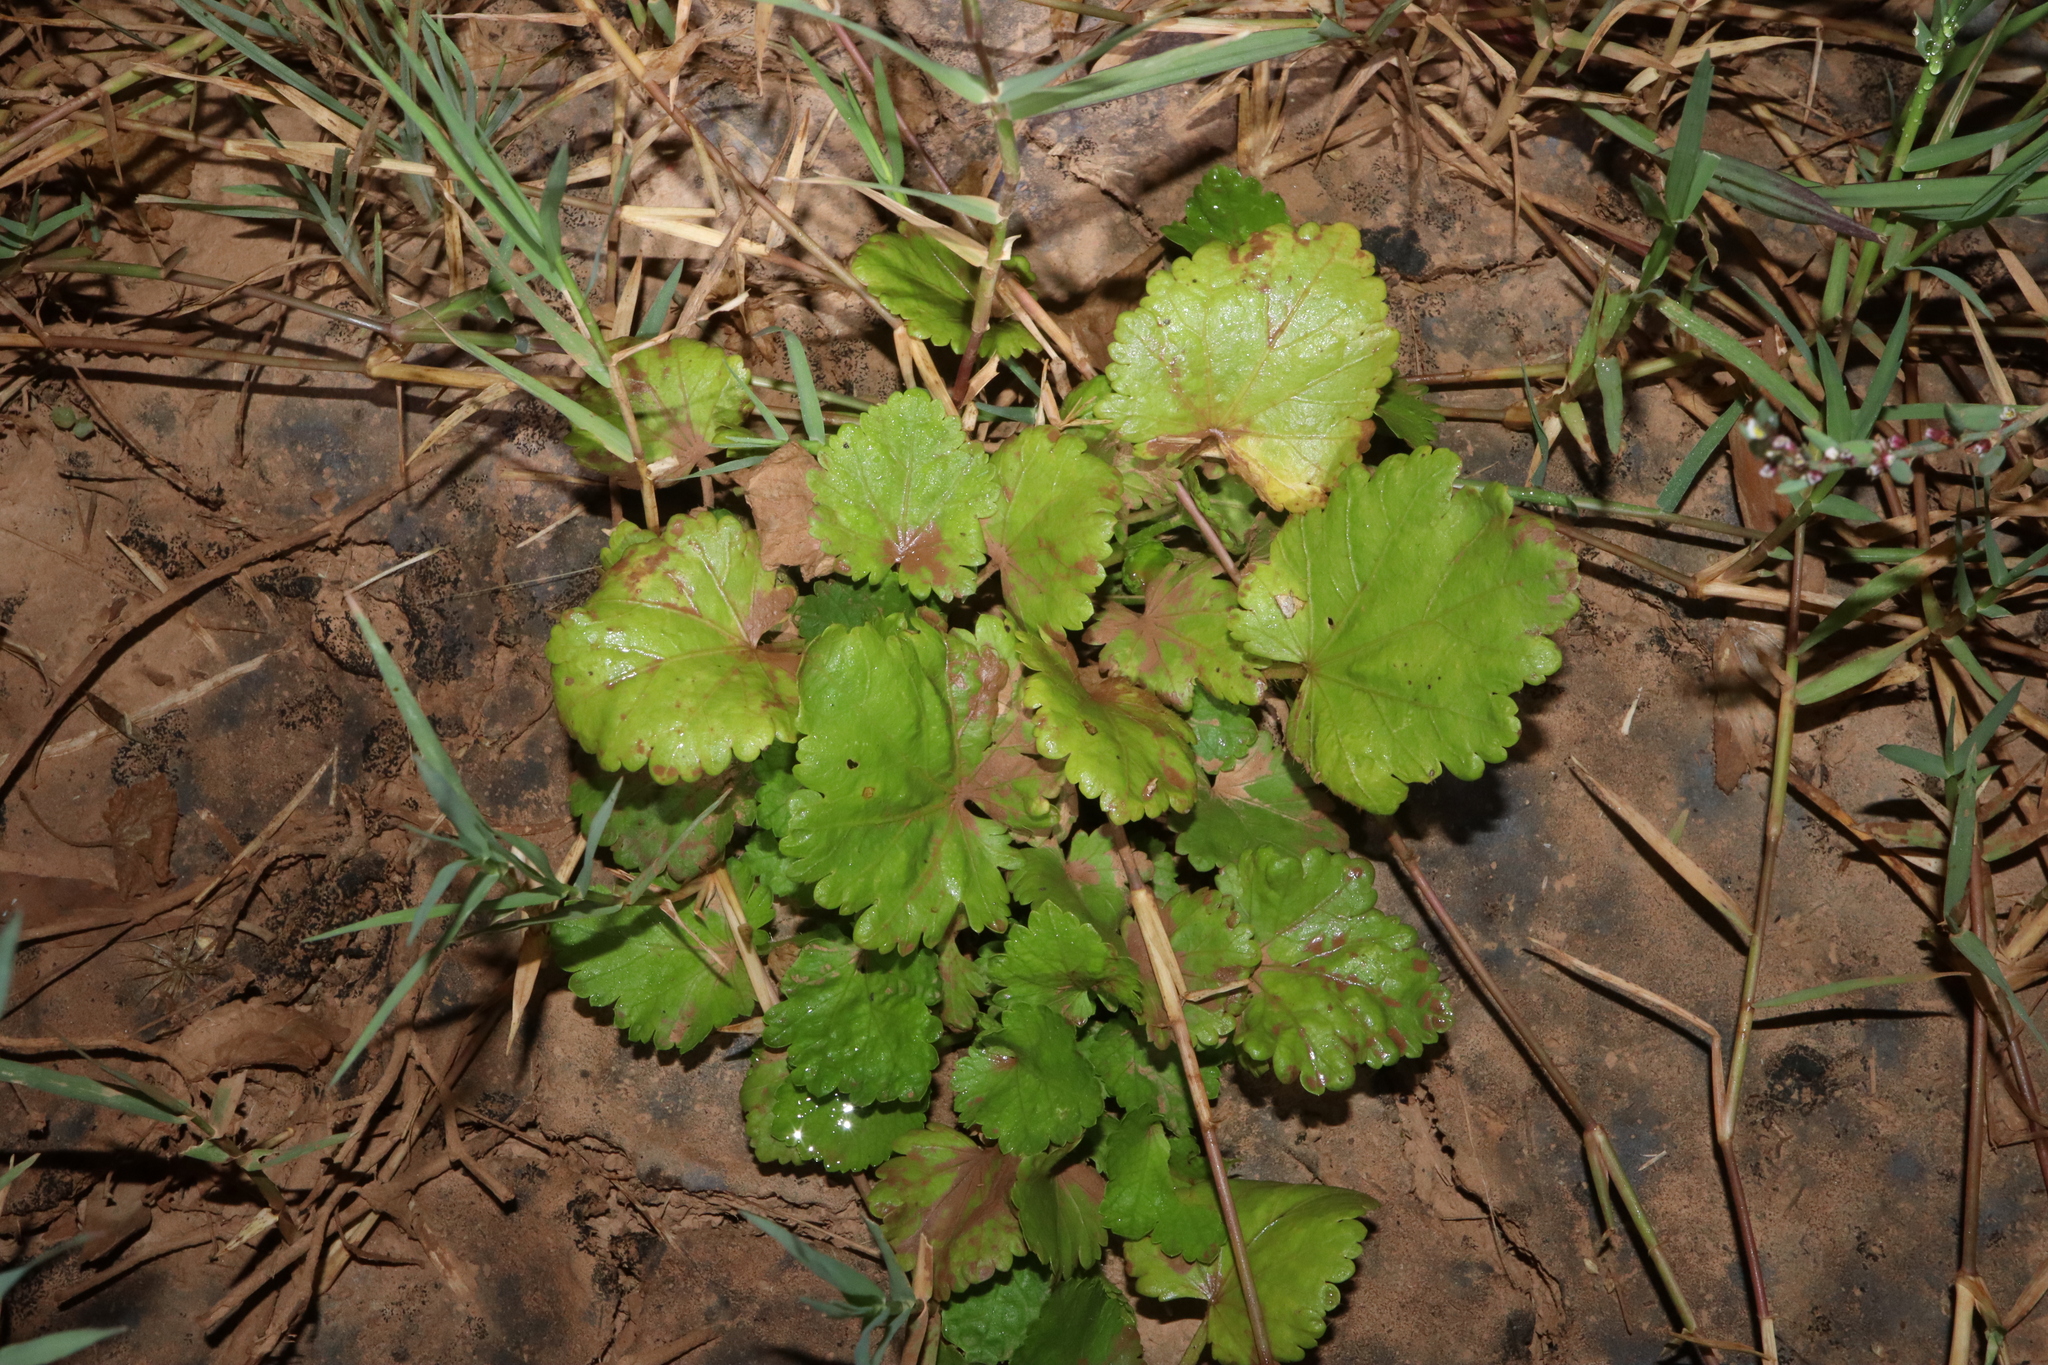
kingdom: Plantae
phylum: Tracheophyta
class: Magnoliopsida
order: Malvales
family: Malvaceae
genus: Modiola
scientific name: Modiola caroliniana
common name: Carolina bristlemallow
